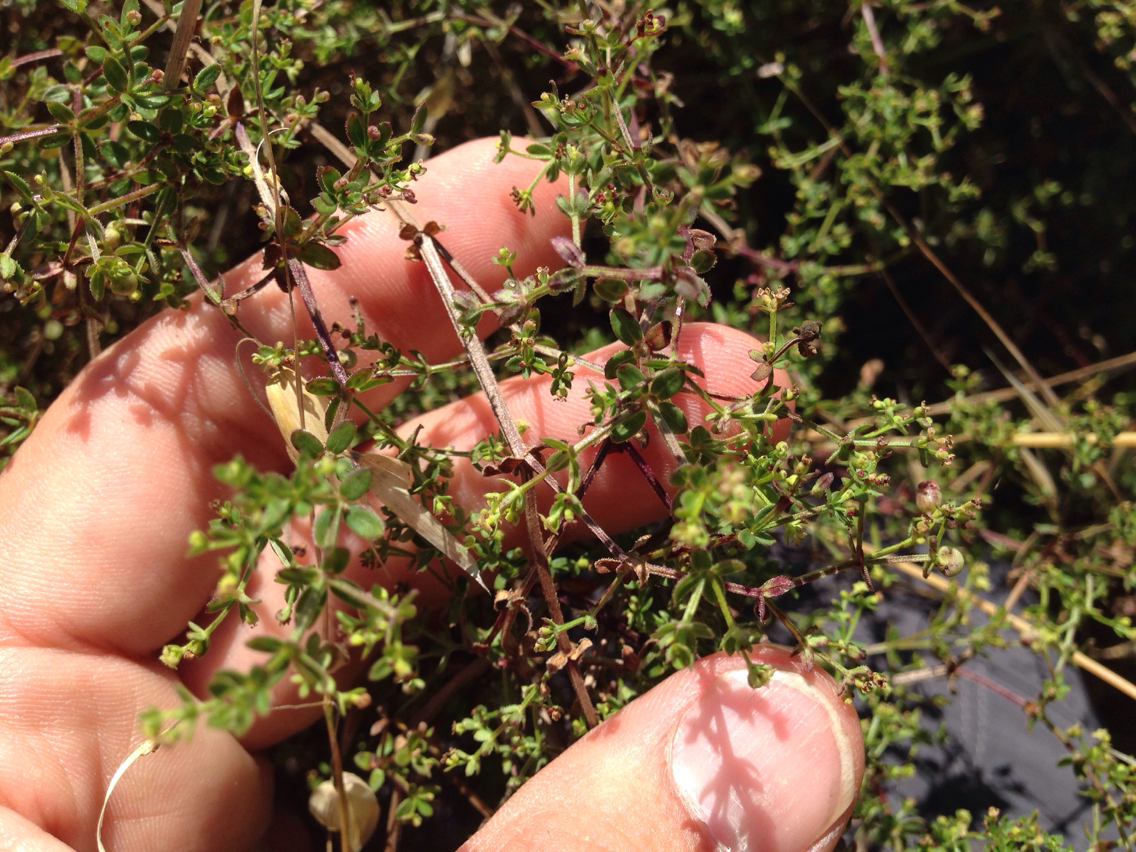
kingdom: Plantae
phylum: Tracheophyta
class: Magnoliopsida
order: Gentianales
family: Rubiaceae
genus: Galium
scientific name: Galium porrigens
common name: Climbing bedstraw
